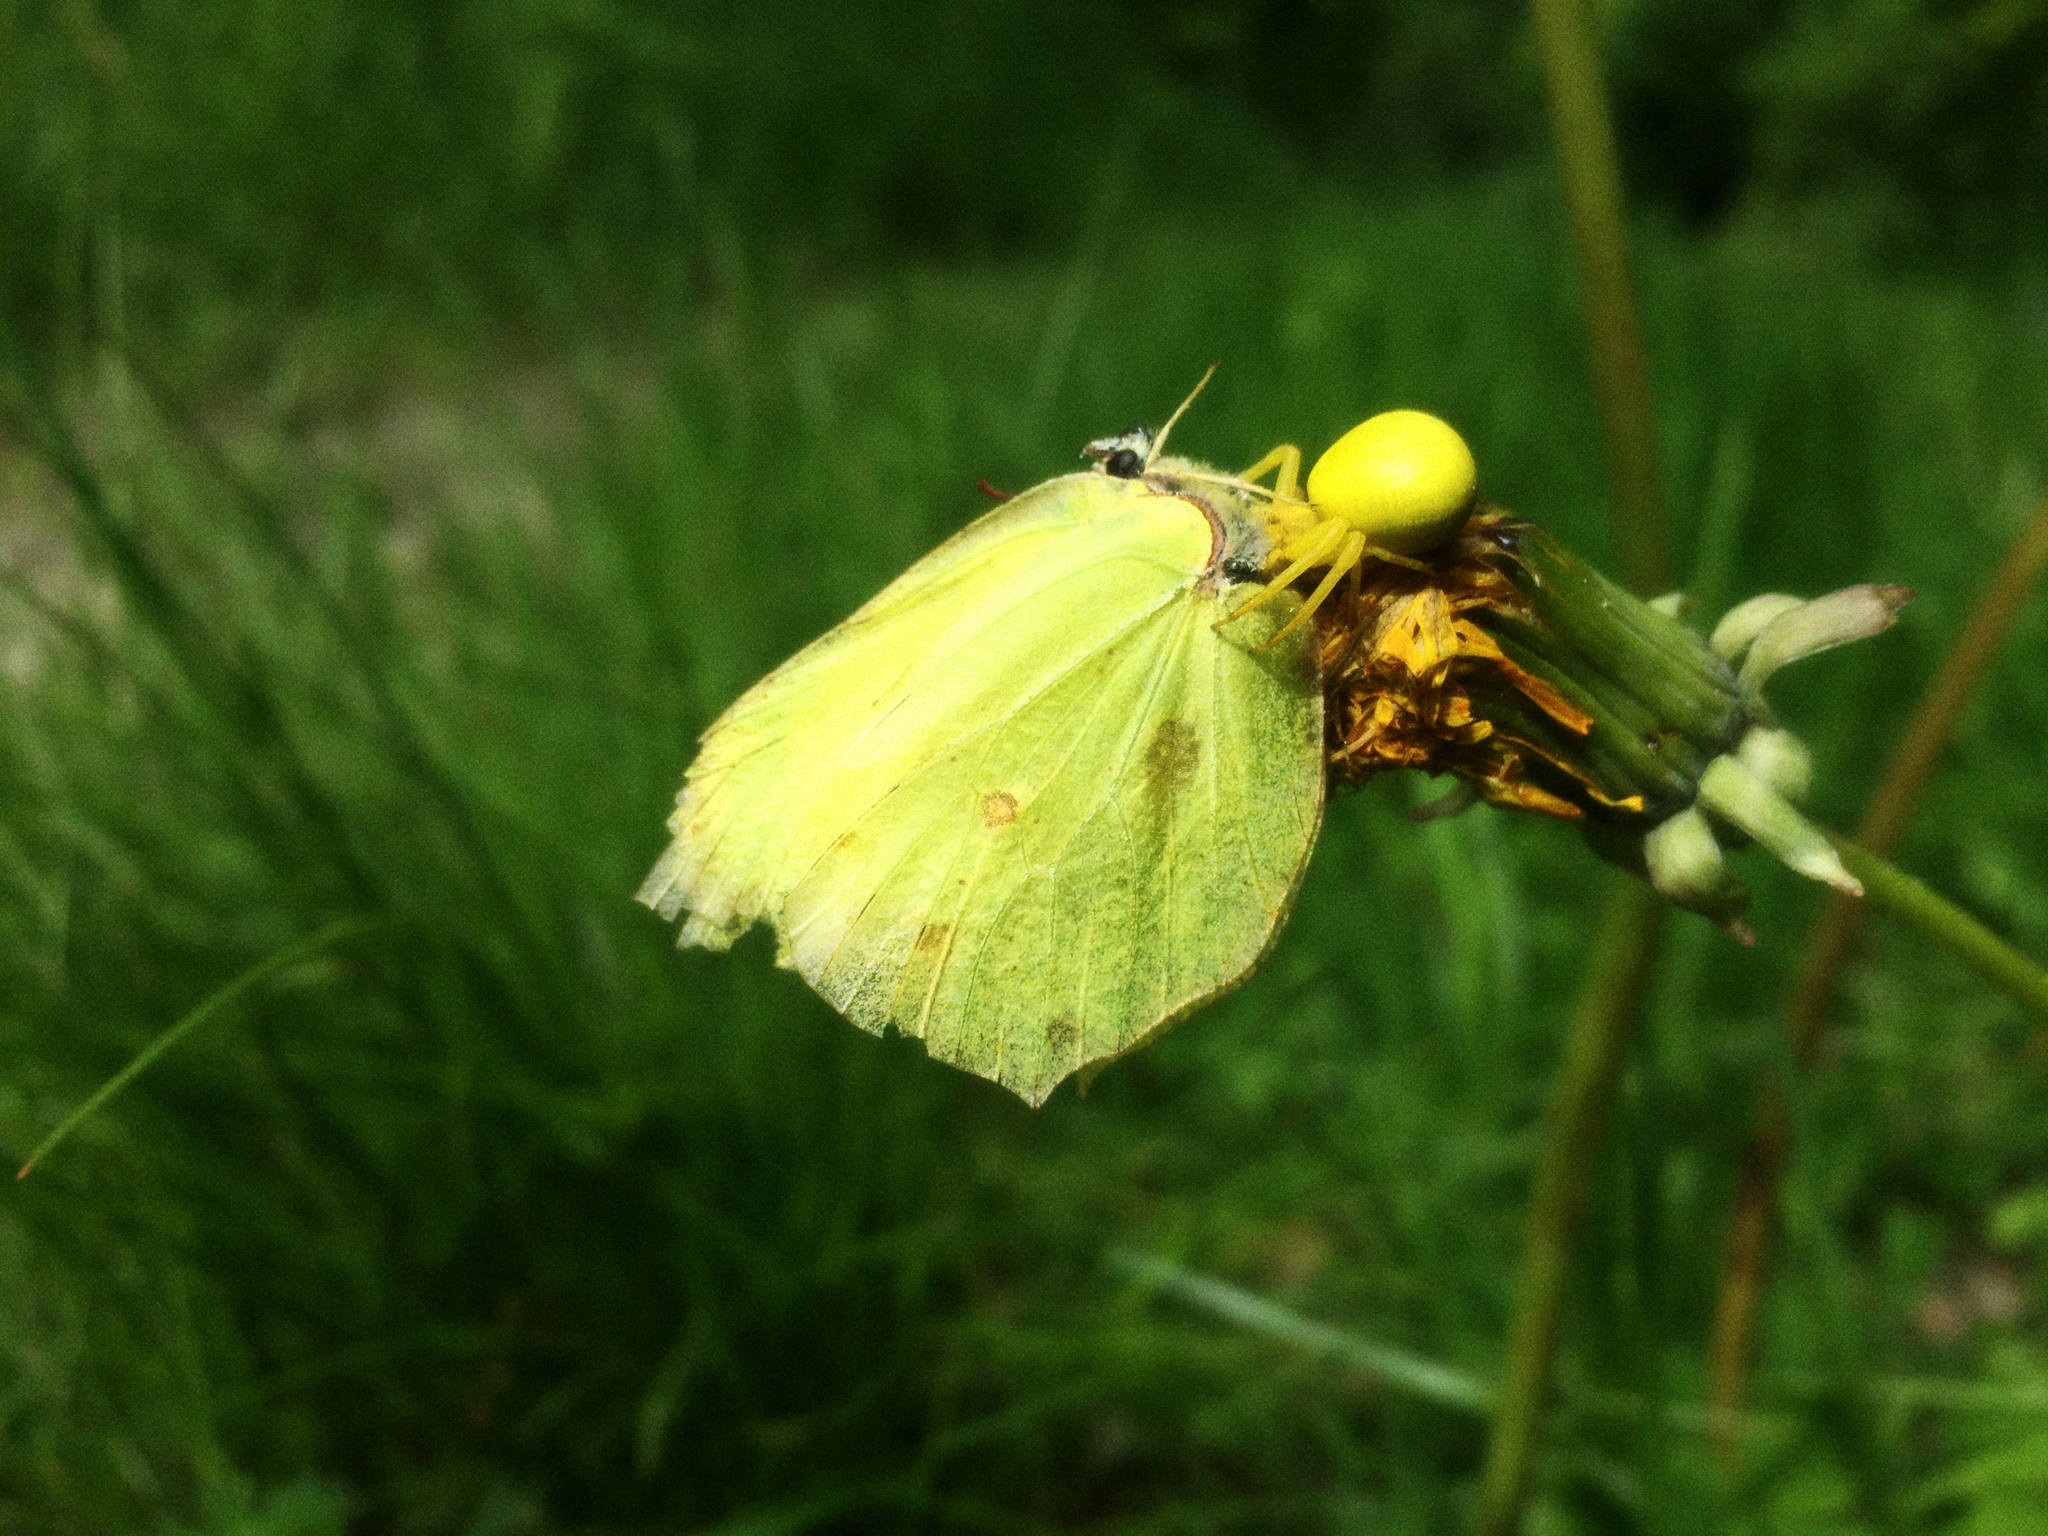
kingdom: Animalia
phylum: Arthropoda
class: Arachnida
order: Araneae
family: Thomisidae
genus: Misumena
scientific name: Misumena vatia
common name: Goldenrod crab spider
